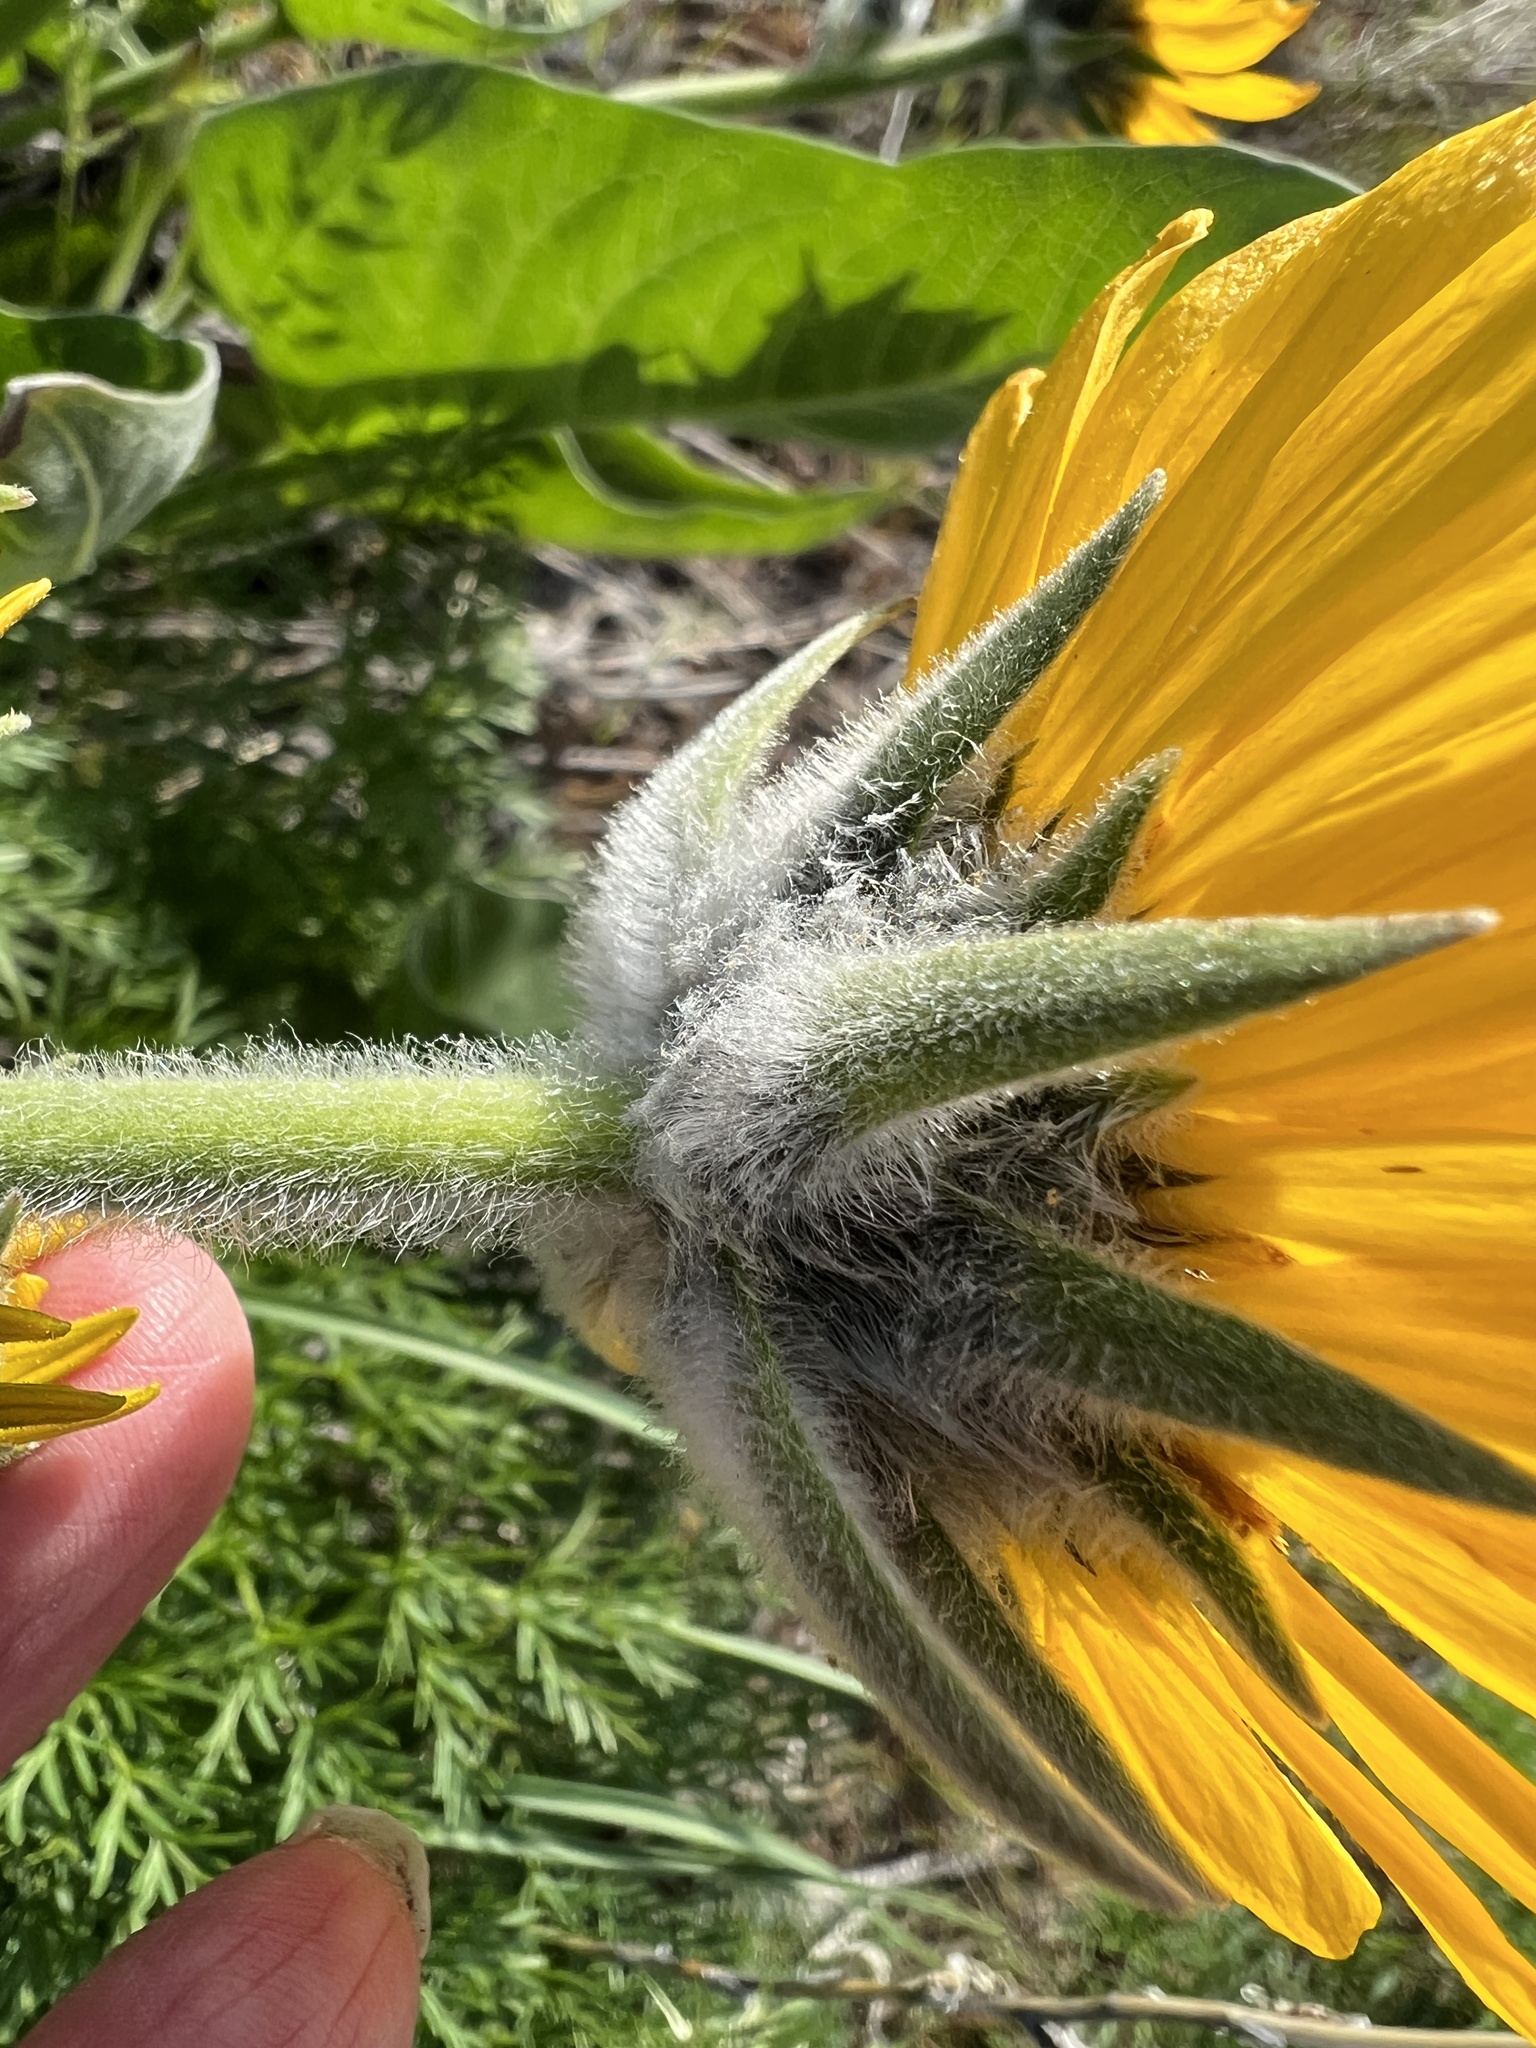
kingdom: Plantae
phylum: Tracheophyta
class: Magnoliopsida
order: Asterales
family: Asteraceae
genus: Wyethia
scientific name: Wyethia sagittata
